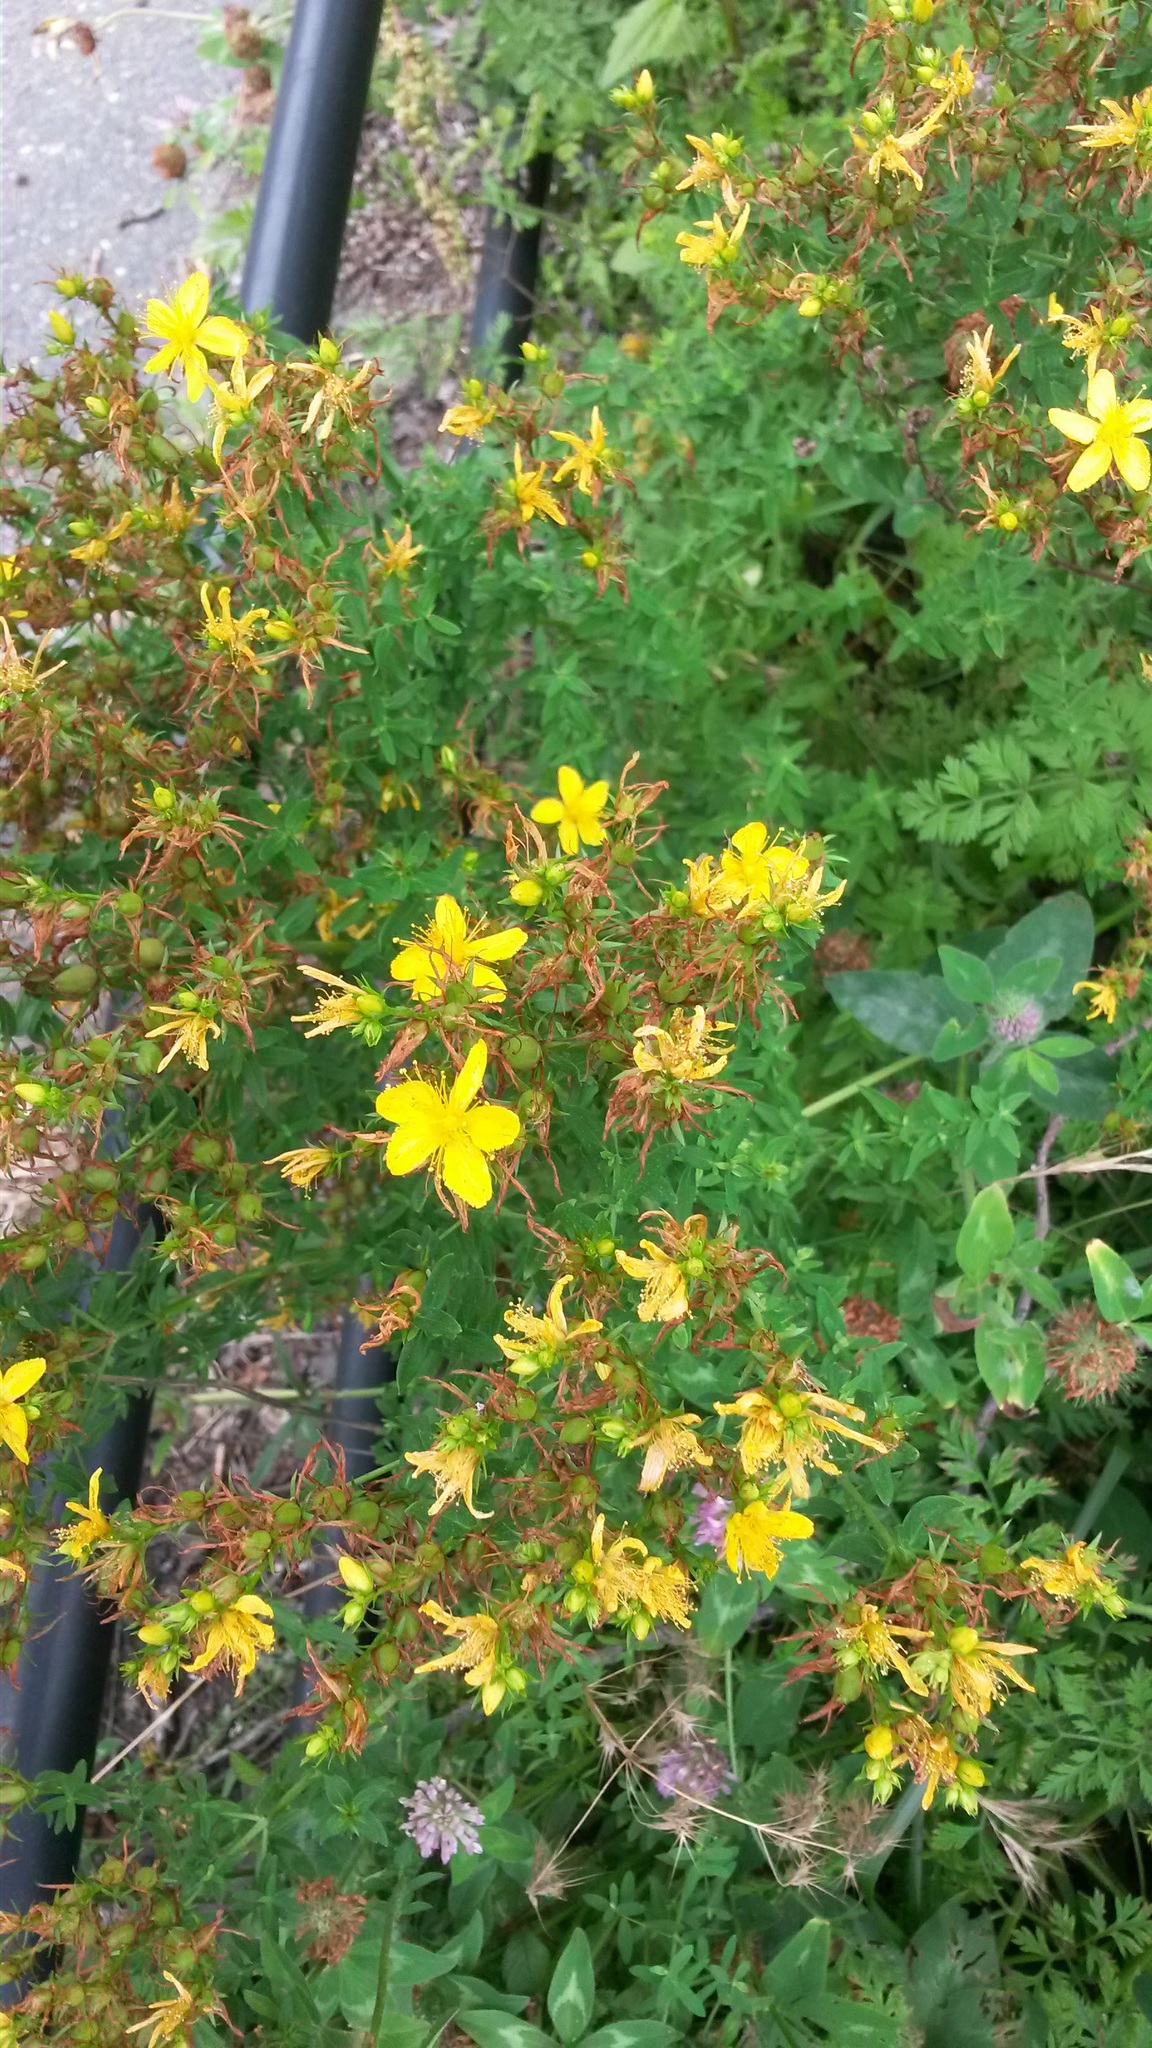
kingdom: Plantae
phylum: Tracheophyta
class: Magnoliopsida
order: Malpighiales
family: Hypericaceae
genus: Hypericum
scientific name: Hypericum perforatum
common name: Common st. johnswort
